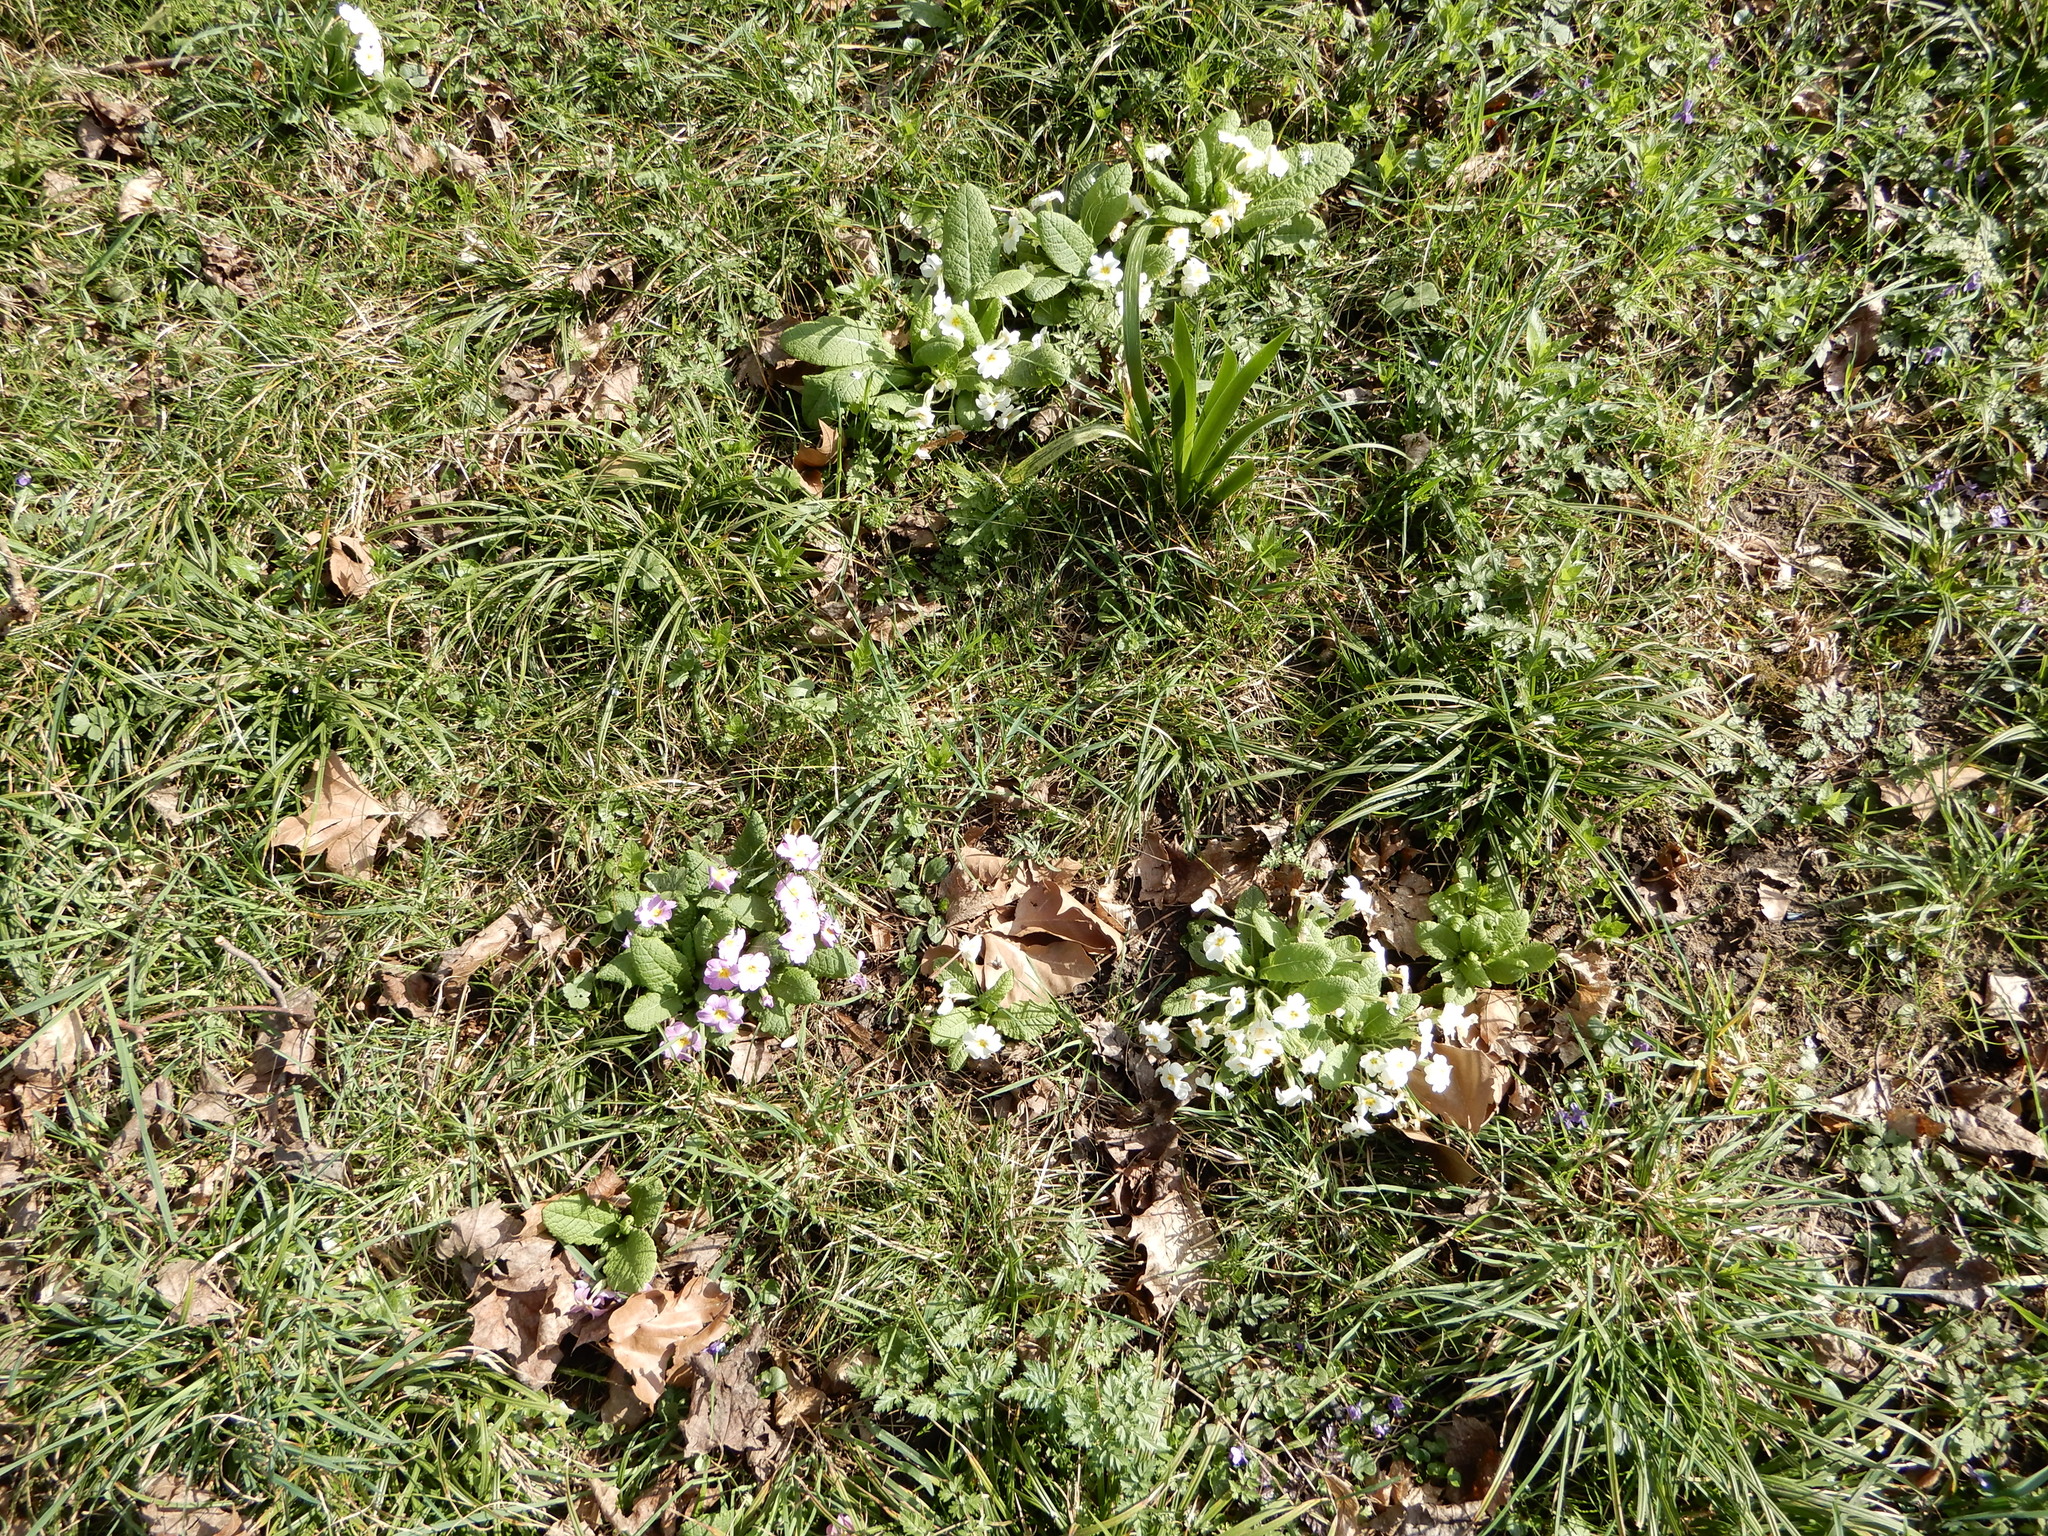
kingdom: Plantae
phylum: Tracheophyta
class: Magnoliopsida
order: Ericales
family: Primulaceae
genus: Primula
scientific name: Primula vulgaris
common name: Primrose
